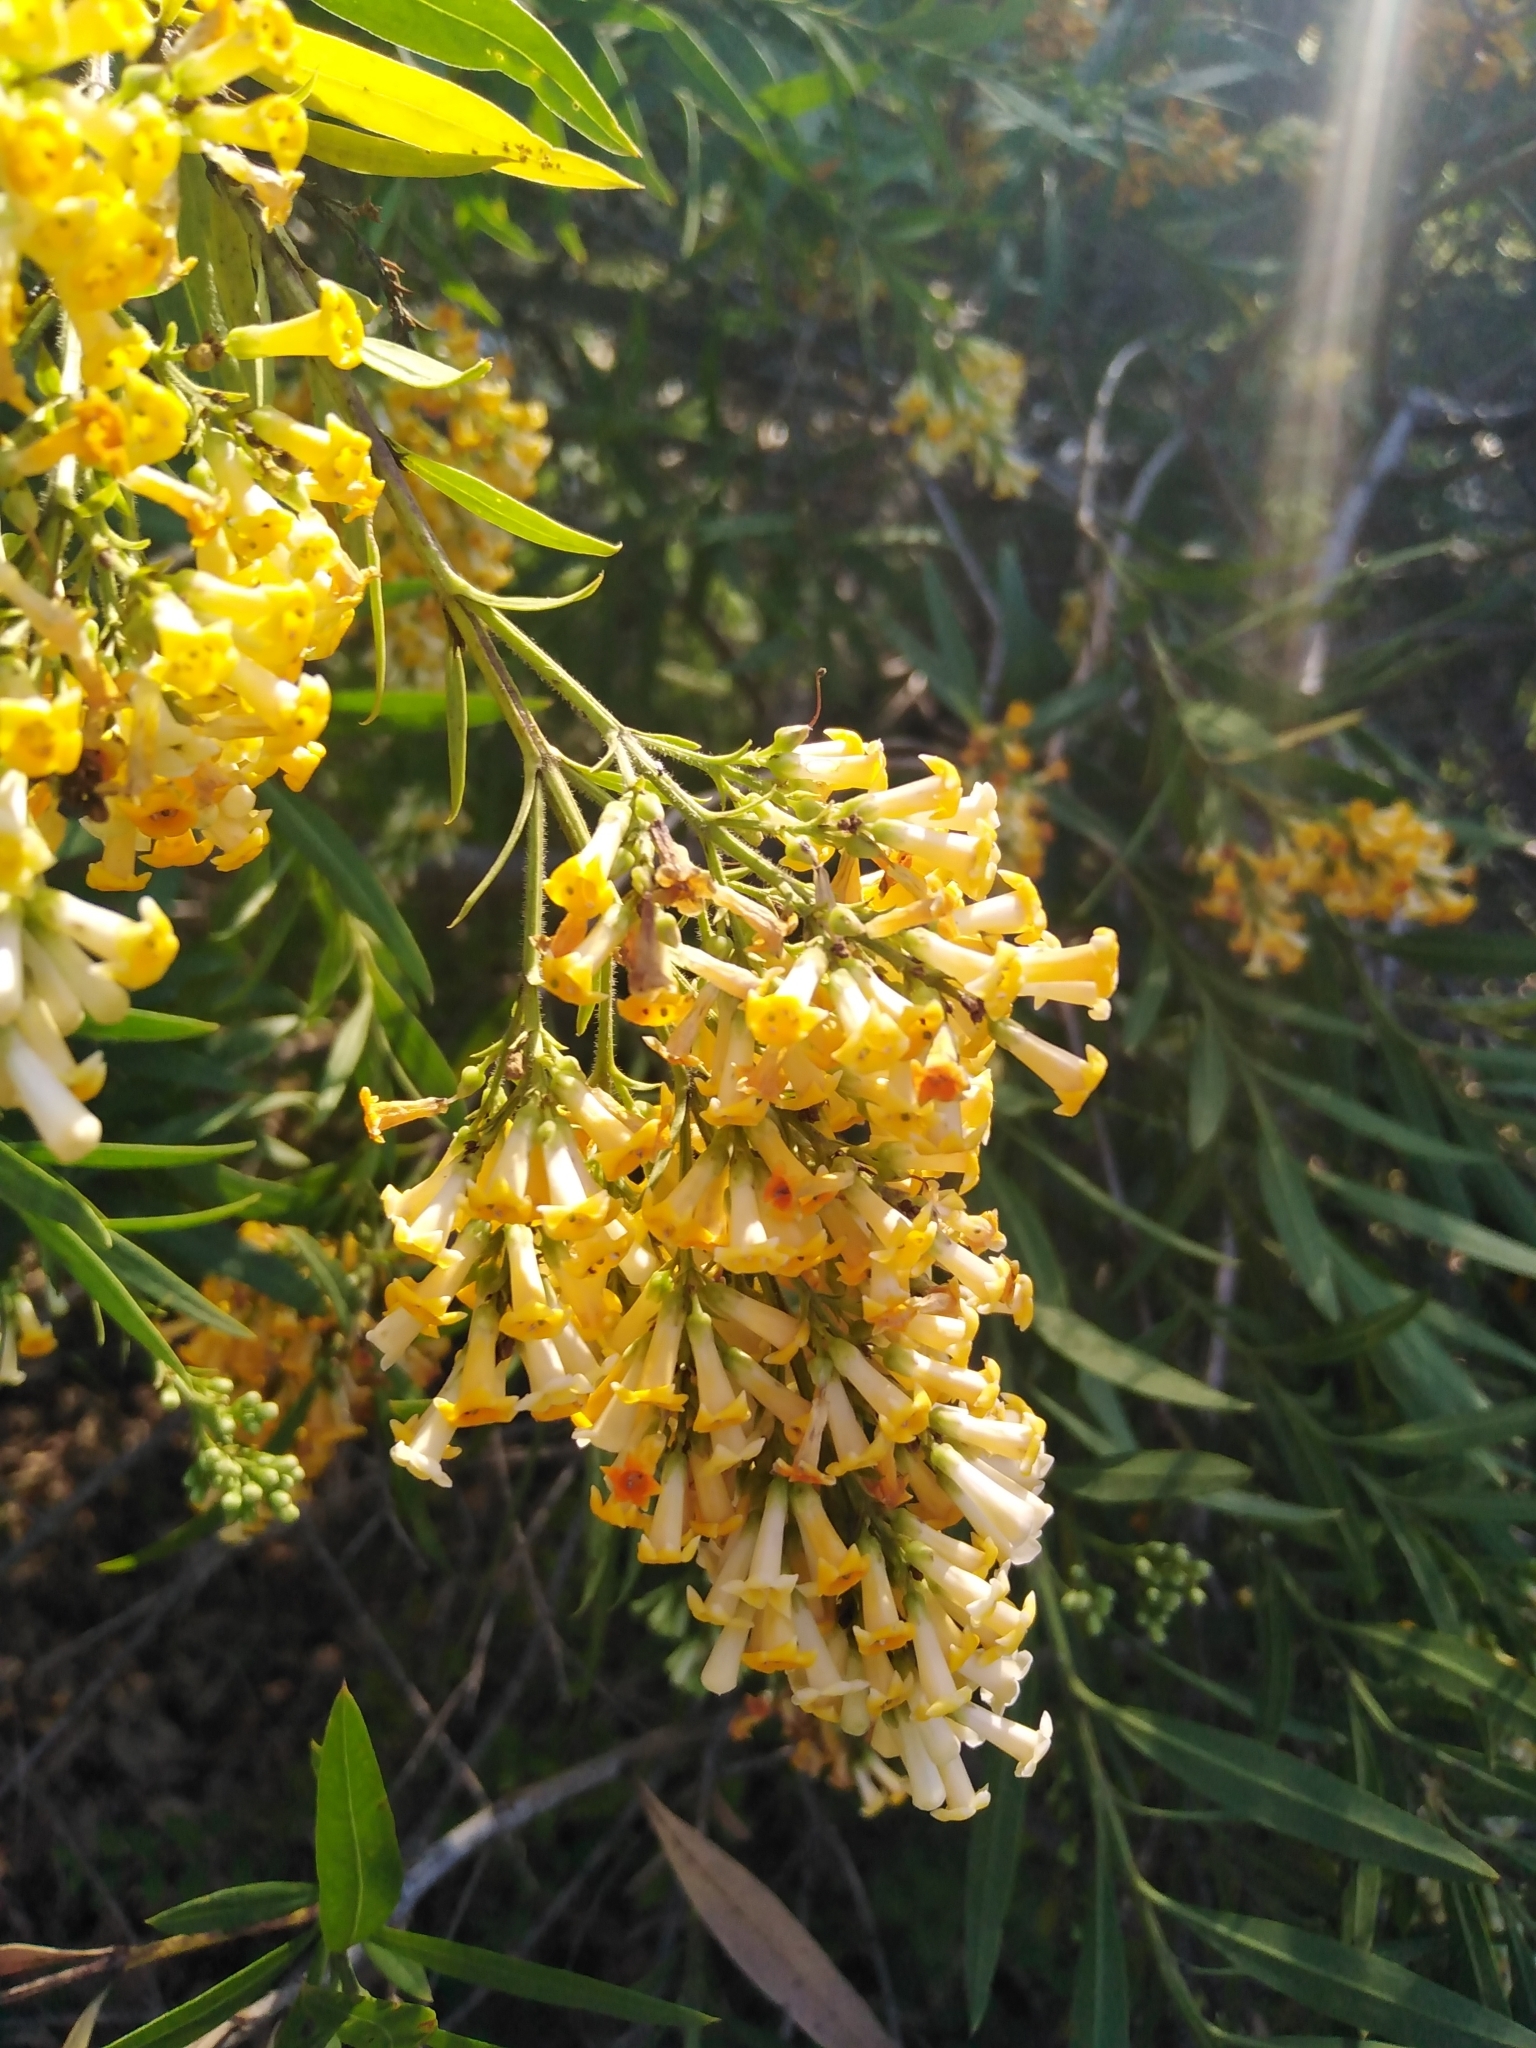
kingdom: Plantae
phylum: Tracheophyta
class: Magnoliopsida
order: Lamiales
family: Scrophulariaceae
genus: Freylinia
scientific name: Freylinia lanceolata
